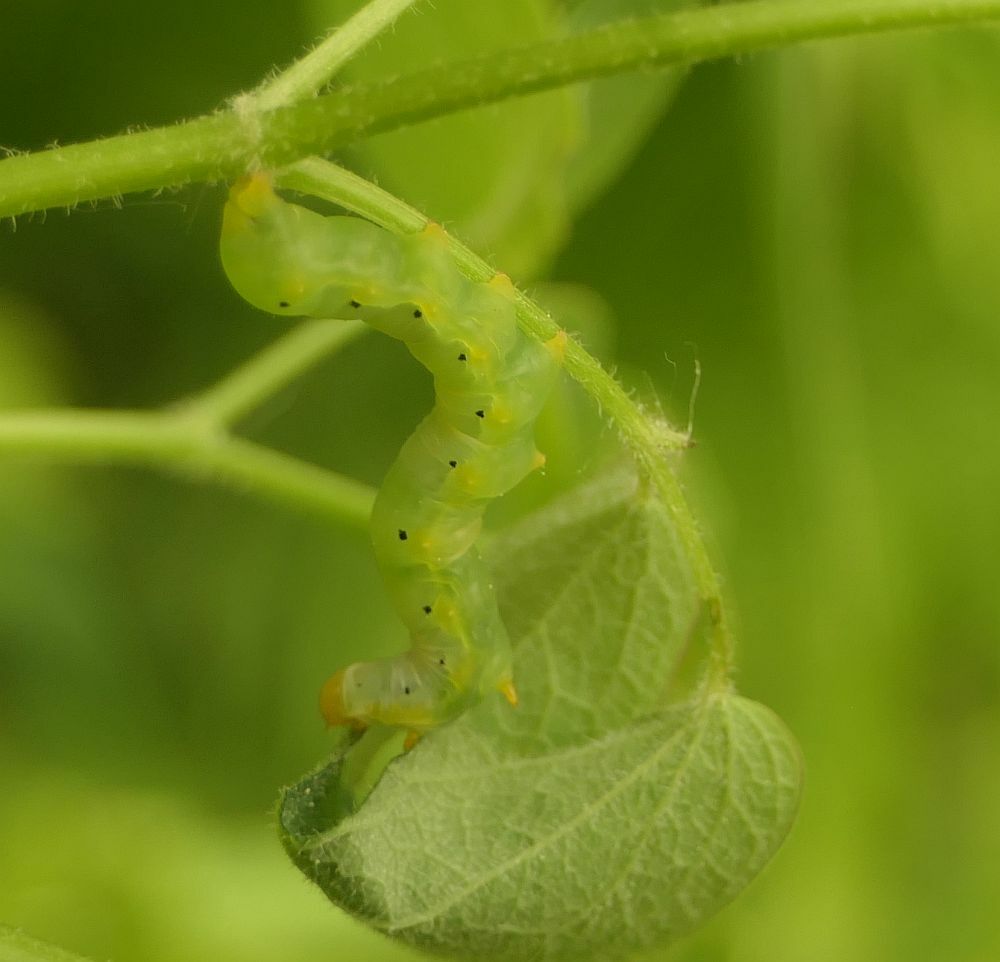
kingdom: Animalia
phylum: Arthropoda
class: Insecta
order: Lepidoptera
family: Erebidae
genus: Calyptra
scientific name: Calyptra canadensis
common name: Canadian owlet
